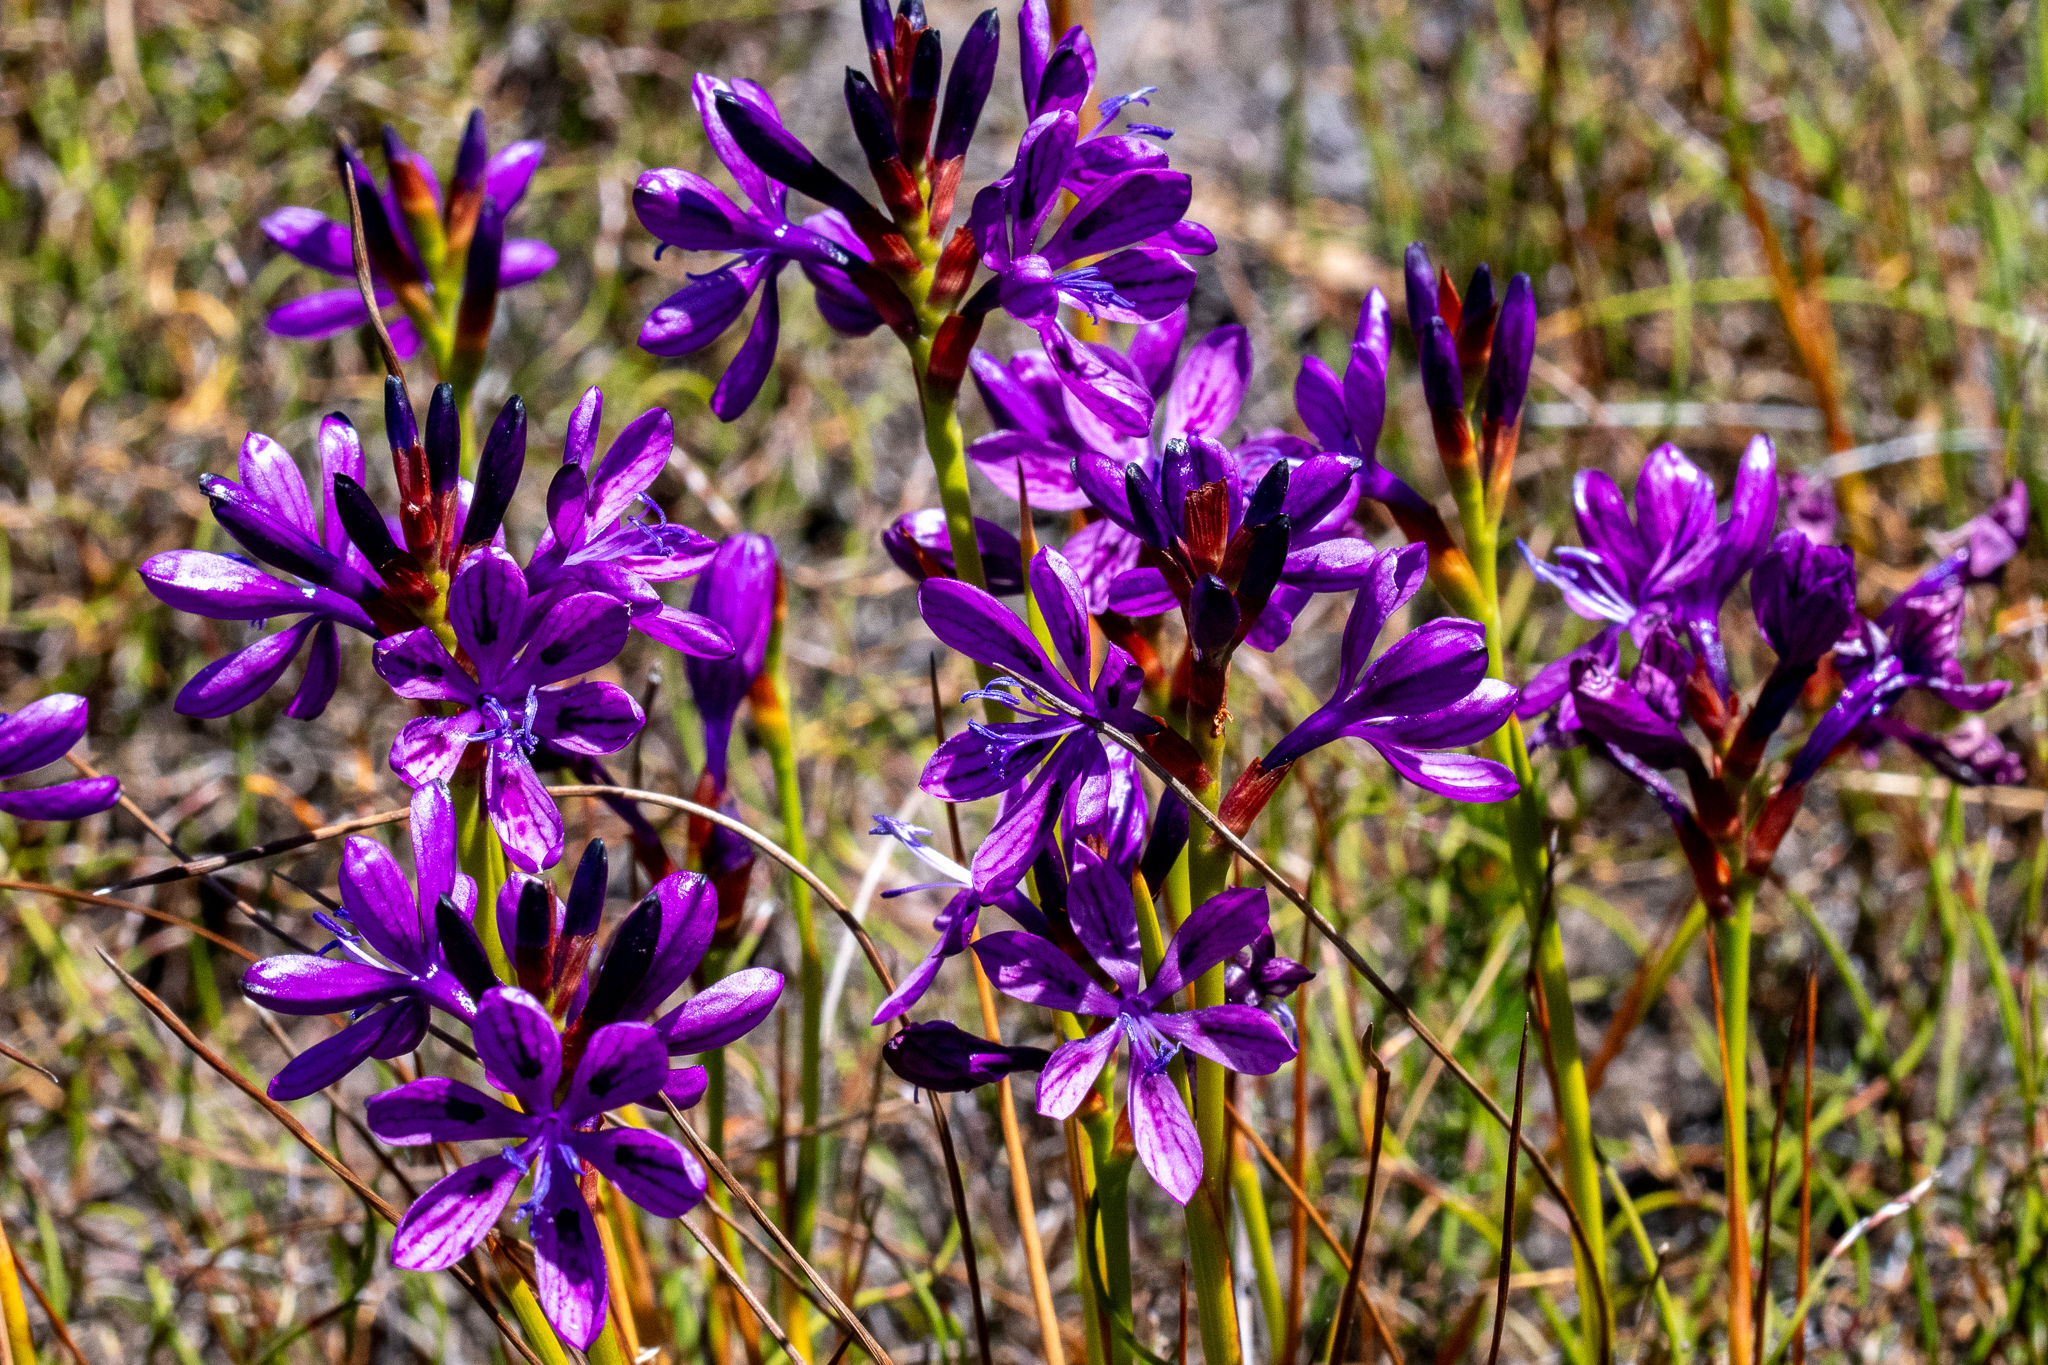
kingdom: Plantae
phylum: Tracheophyta
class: Liliopsida
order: Asparagales
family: Iridaceae
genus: Thereianthus
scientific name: Thereianthus bracteolatus
